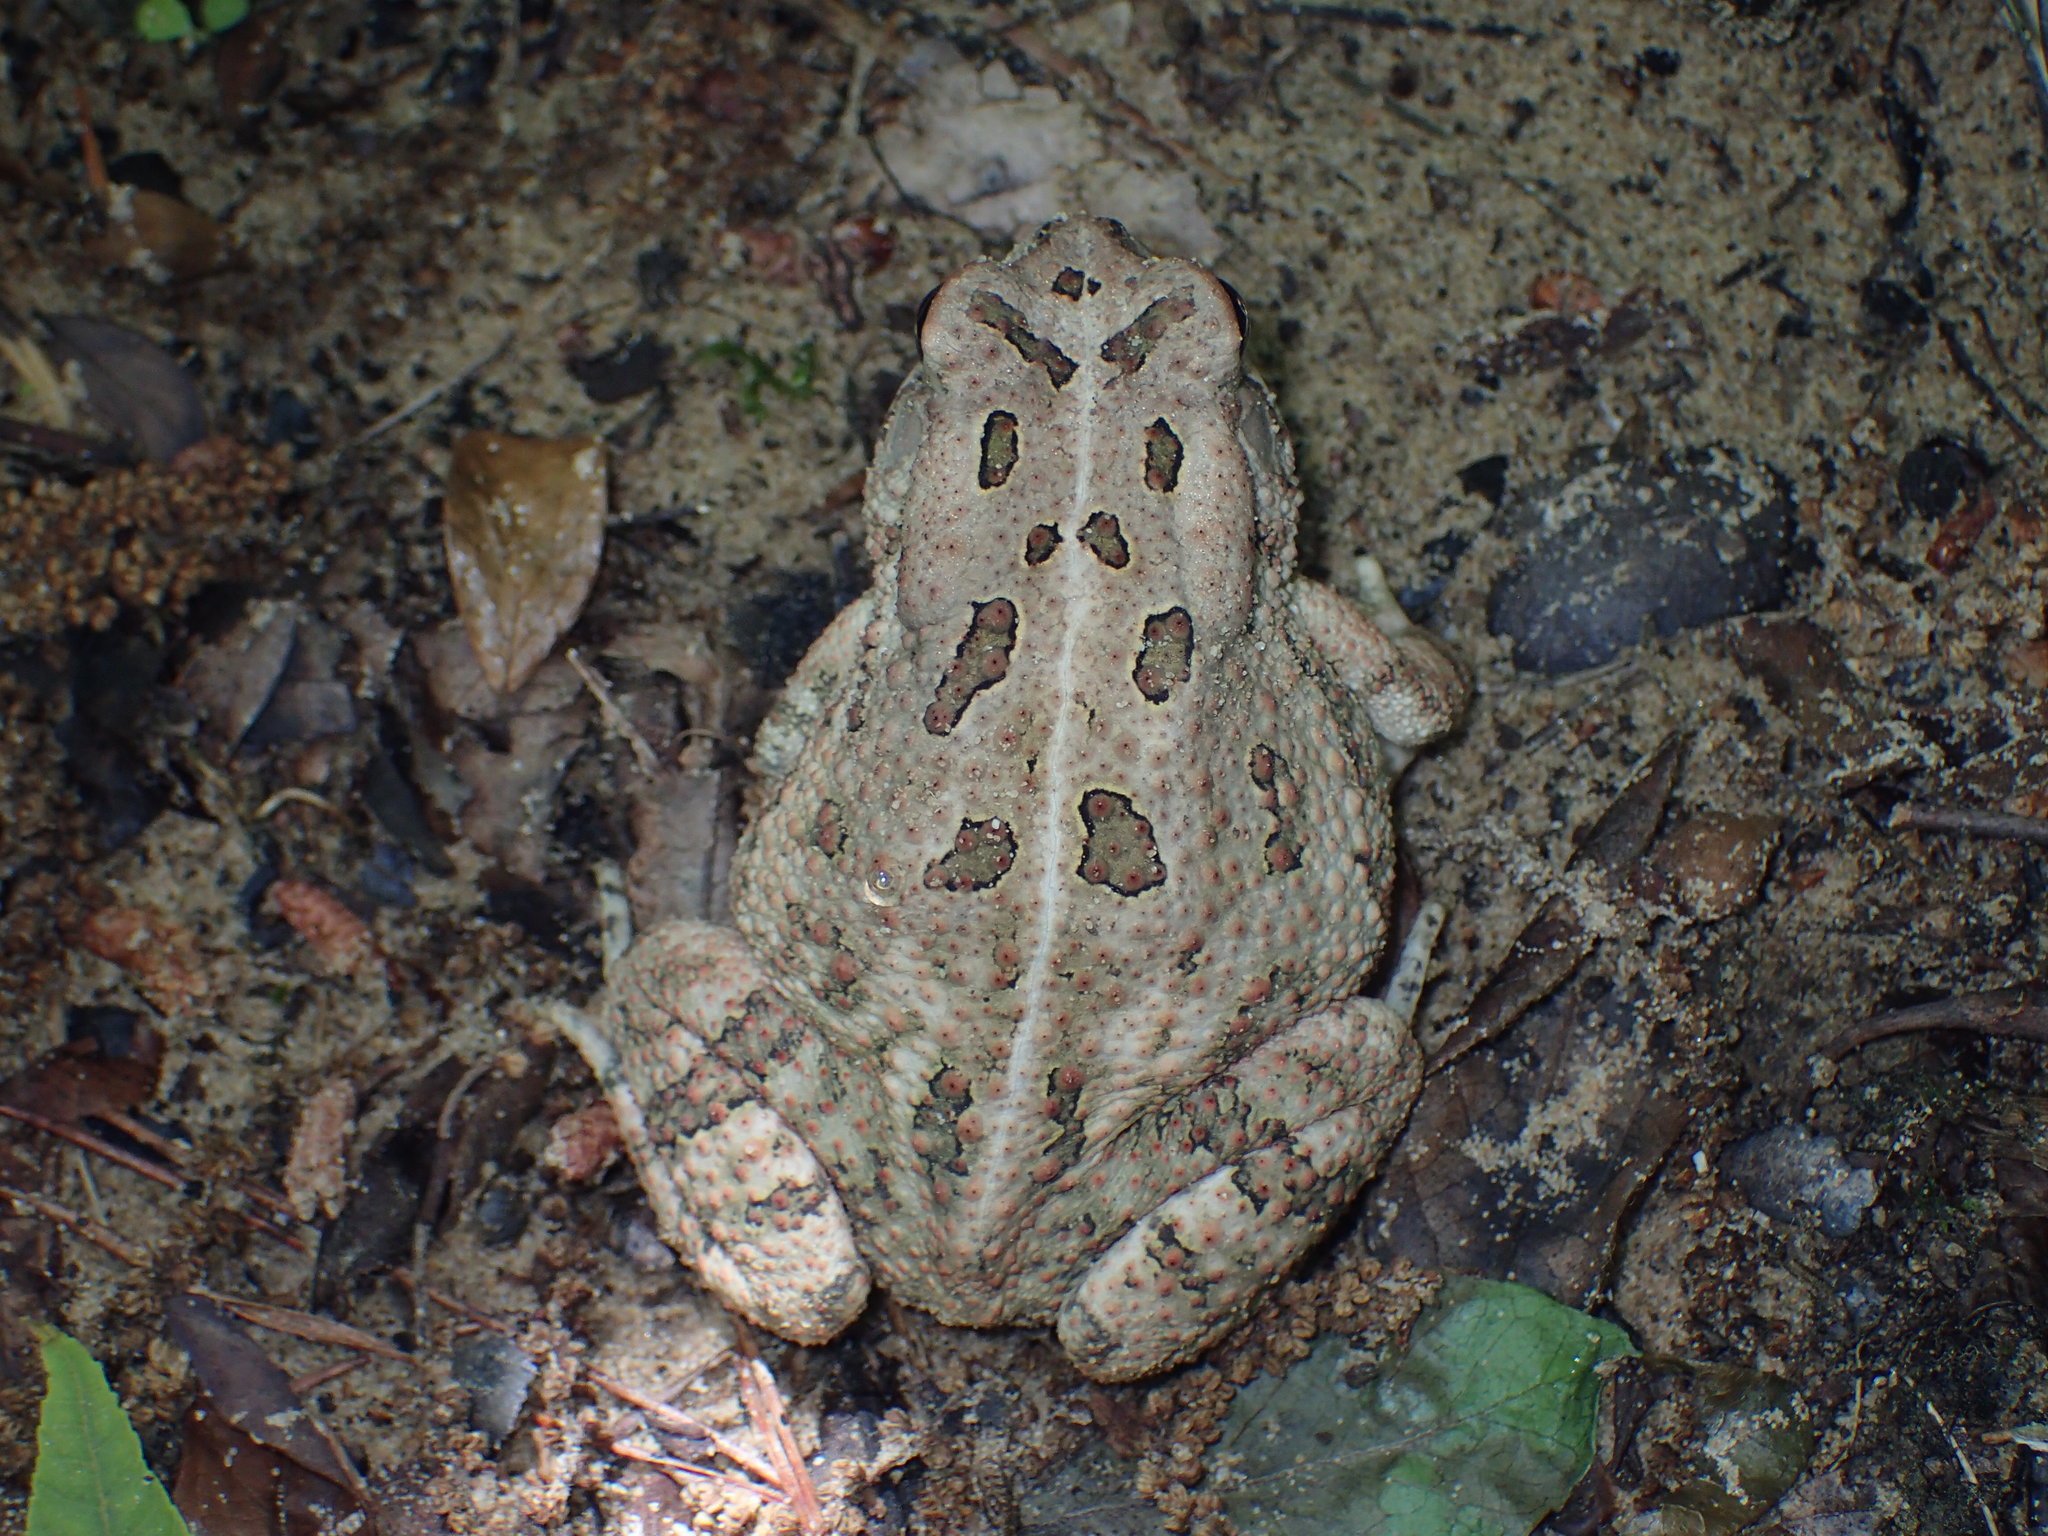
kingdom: Animalia
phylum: Chordata
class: Amphibia
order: Anura
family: Bufonidae
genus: Anaxyrus
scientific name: Anaxyrus fowleri
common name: Fowler's toad
